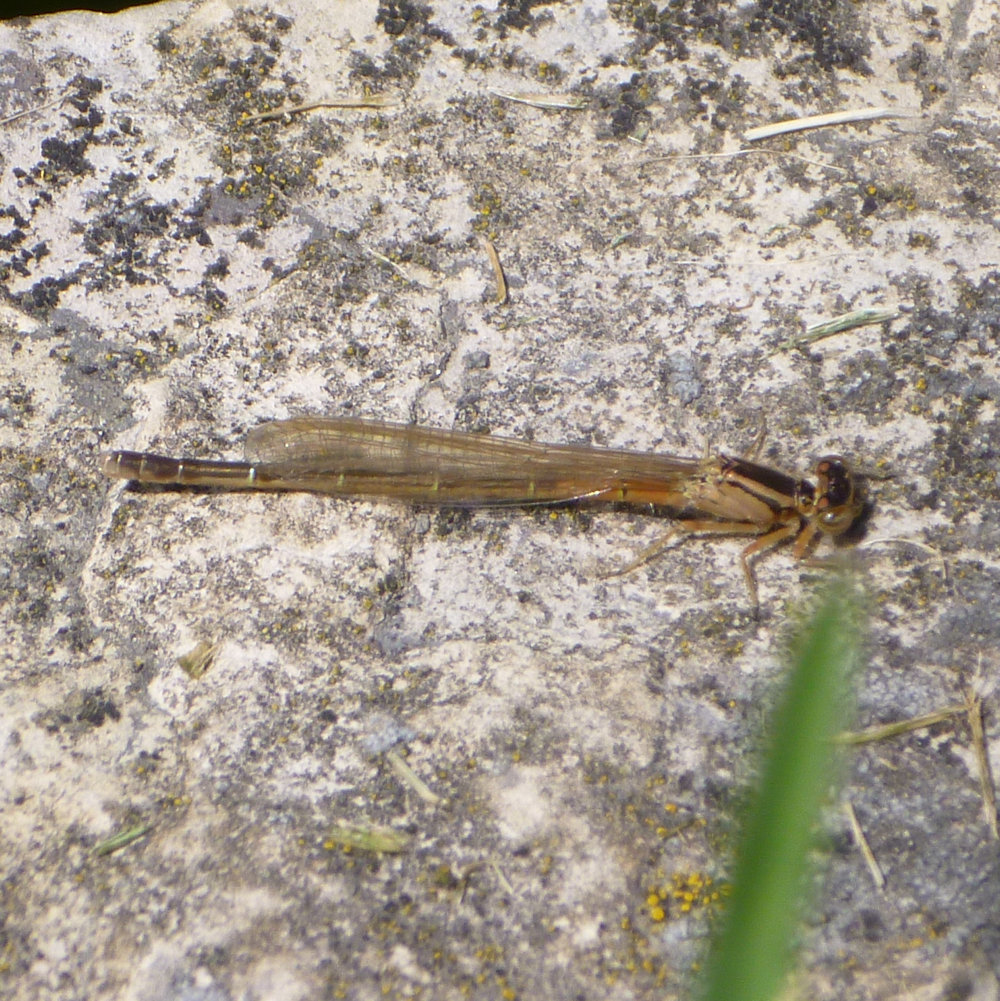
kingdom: Animalia
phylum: Arthropoda
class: Insecta
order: Odonata
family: Coenagrionidae
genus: Ischnura
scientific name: Ischnura verticalis
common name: Eastern forktail
